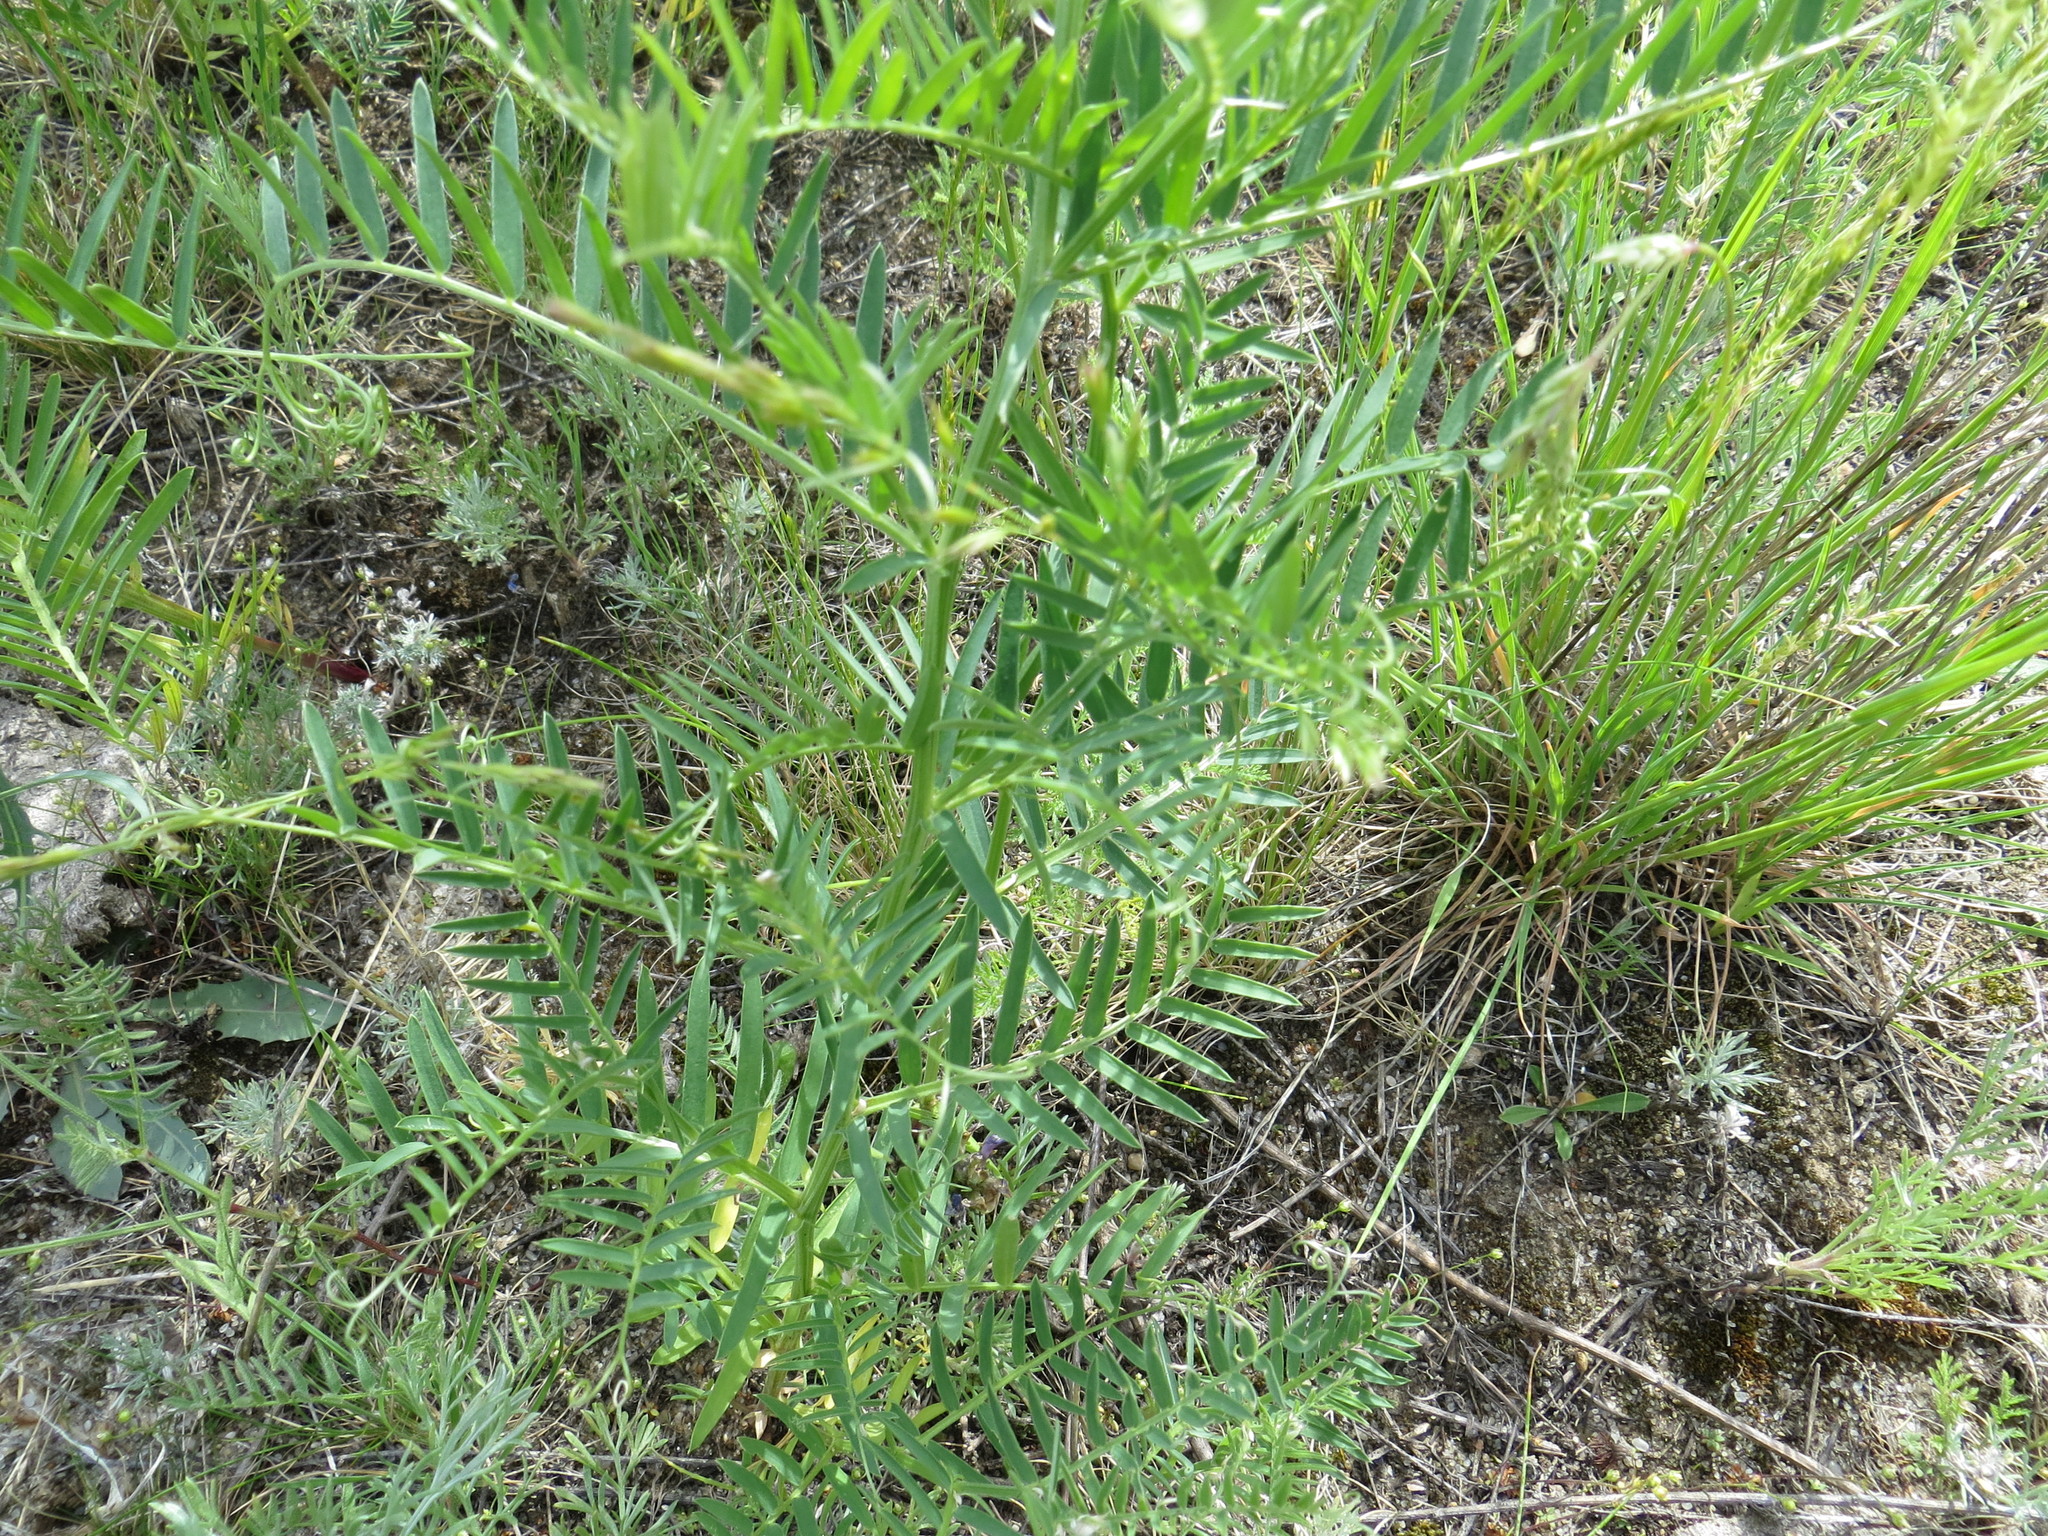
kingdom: Plantae
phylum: Tracheophyta
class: Magnoliopsida
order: Fabales
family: Fabaceae
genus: Vicia
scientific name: Vicia tenuifolia
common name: Fine-leaved vetch
